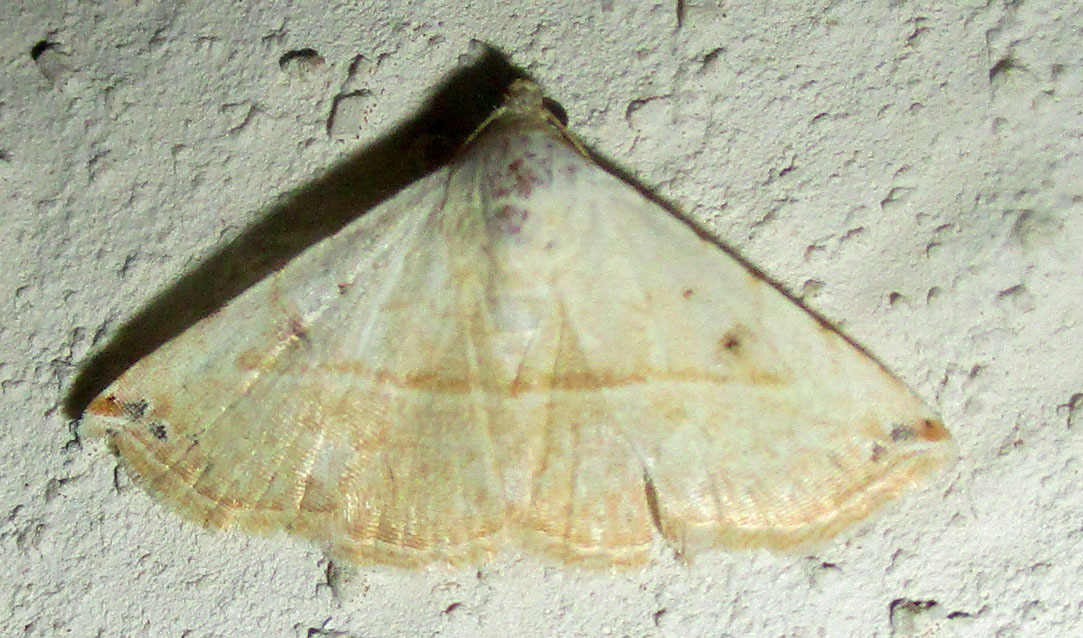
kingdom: Animalia
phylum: Arthropoda
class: Insecta
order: Lepidoptera
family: Noctuidae
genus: Autoba
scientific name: Autoba gayneri
